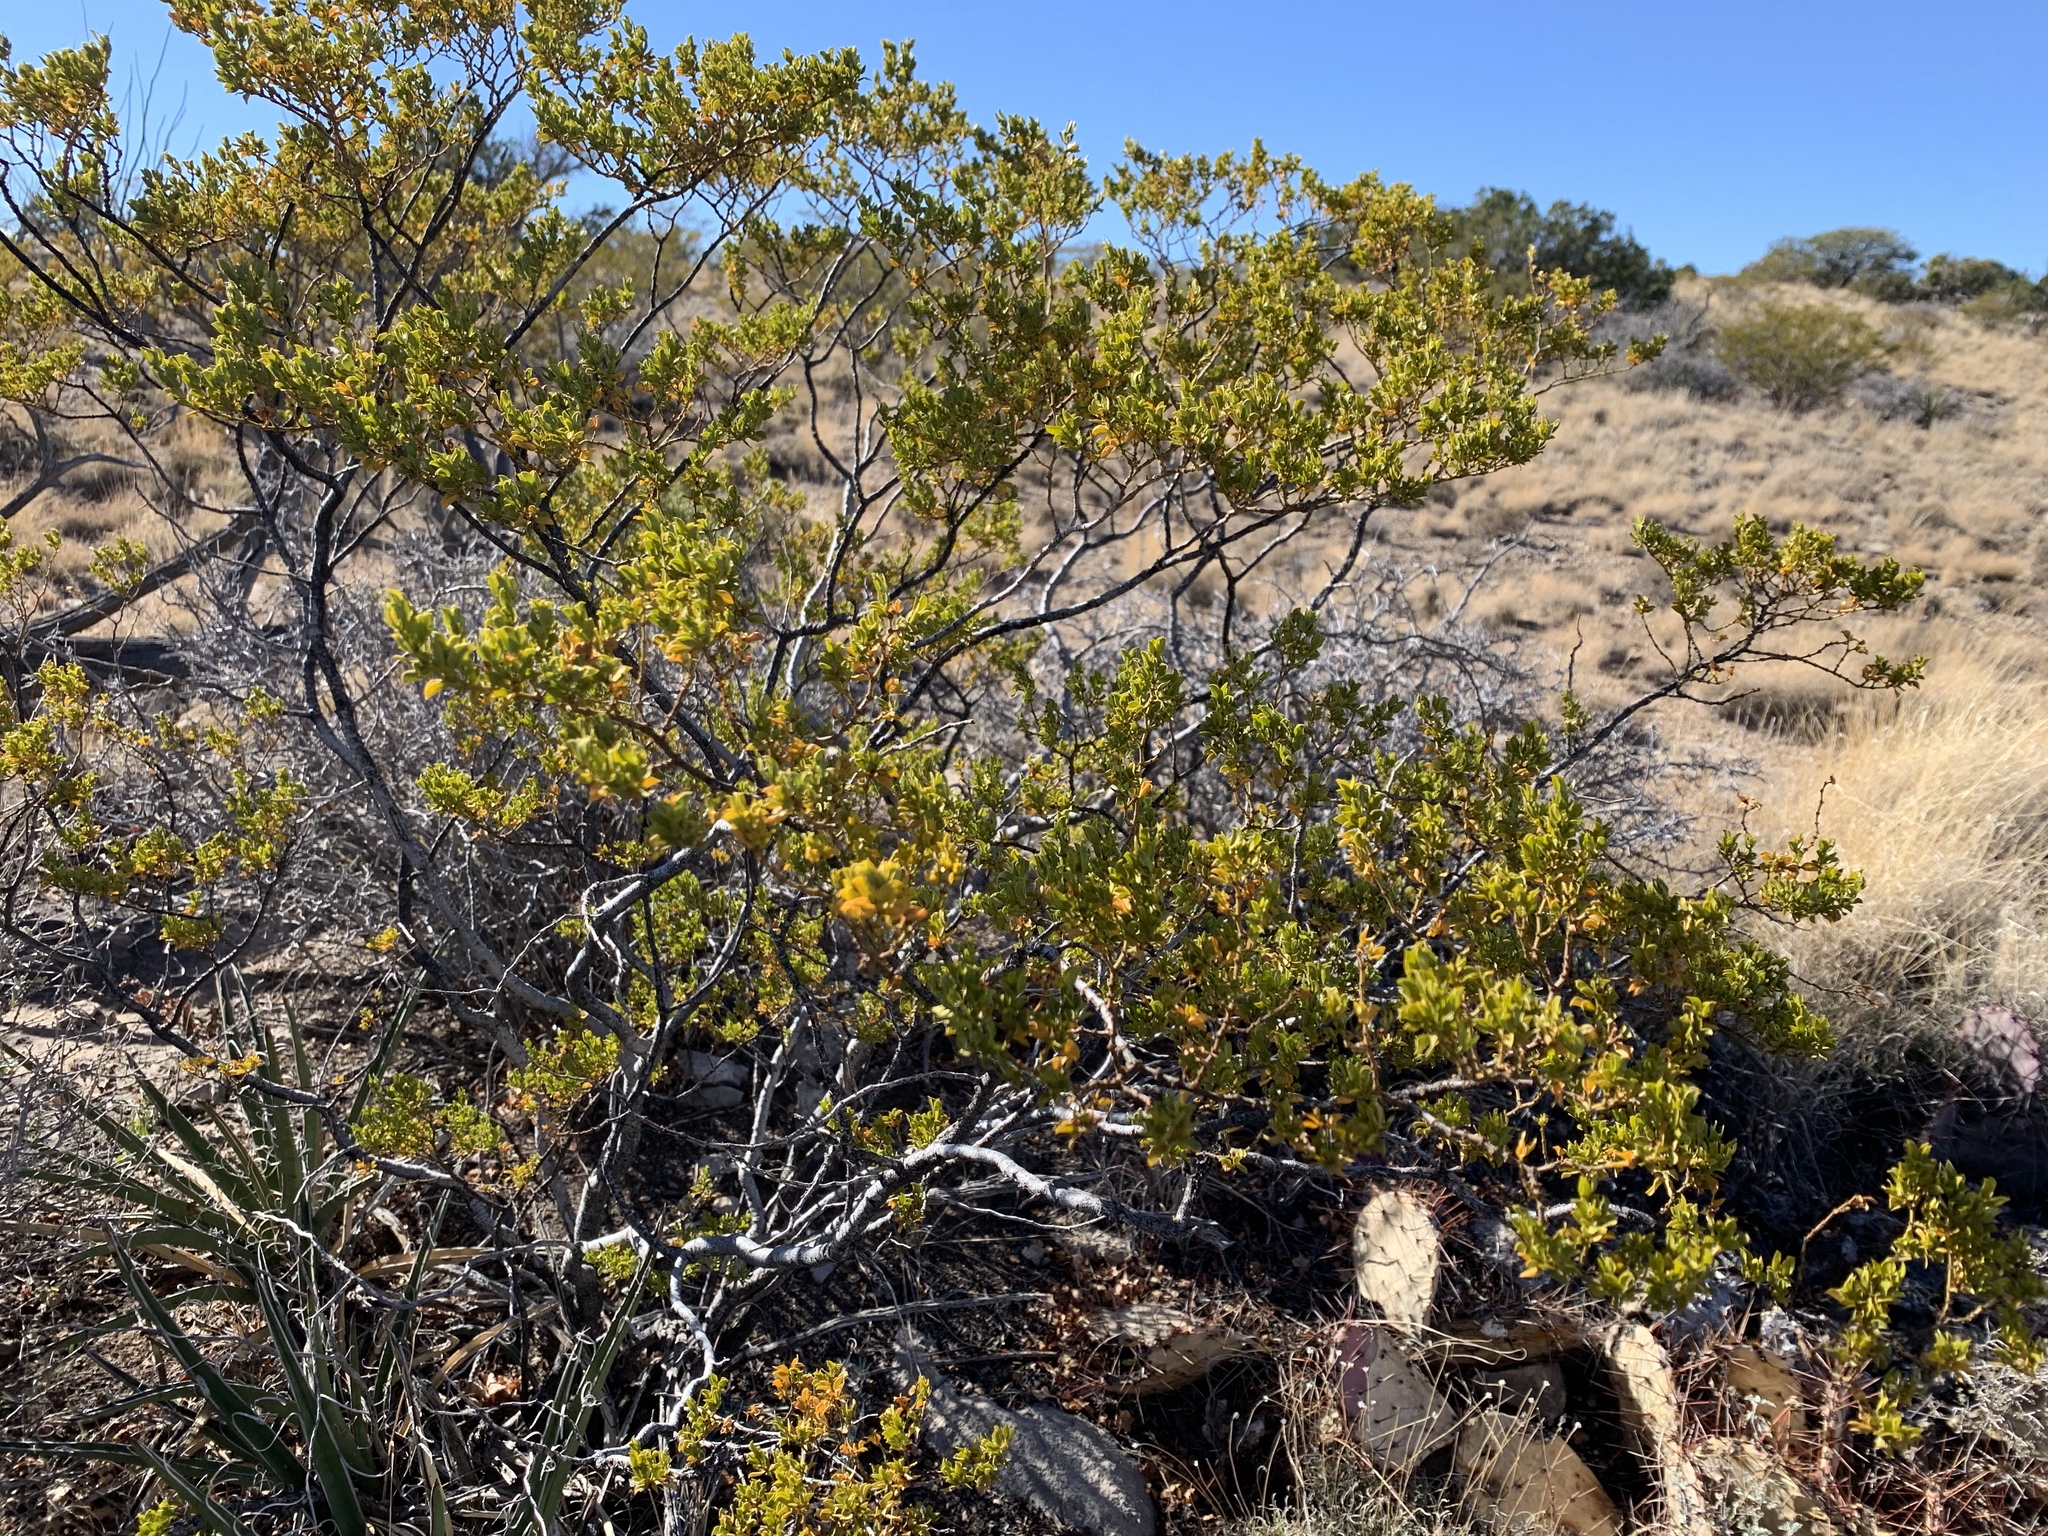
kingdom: Plantae
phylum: Tracheophyta
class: Magnoliopsida
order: Zygophyllales
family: Zygophyllaceae
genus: Larrea
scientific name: Larrea tridentata
